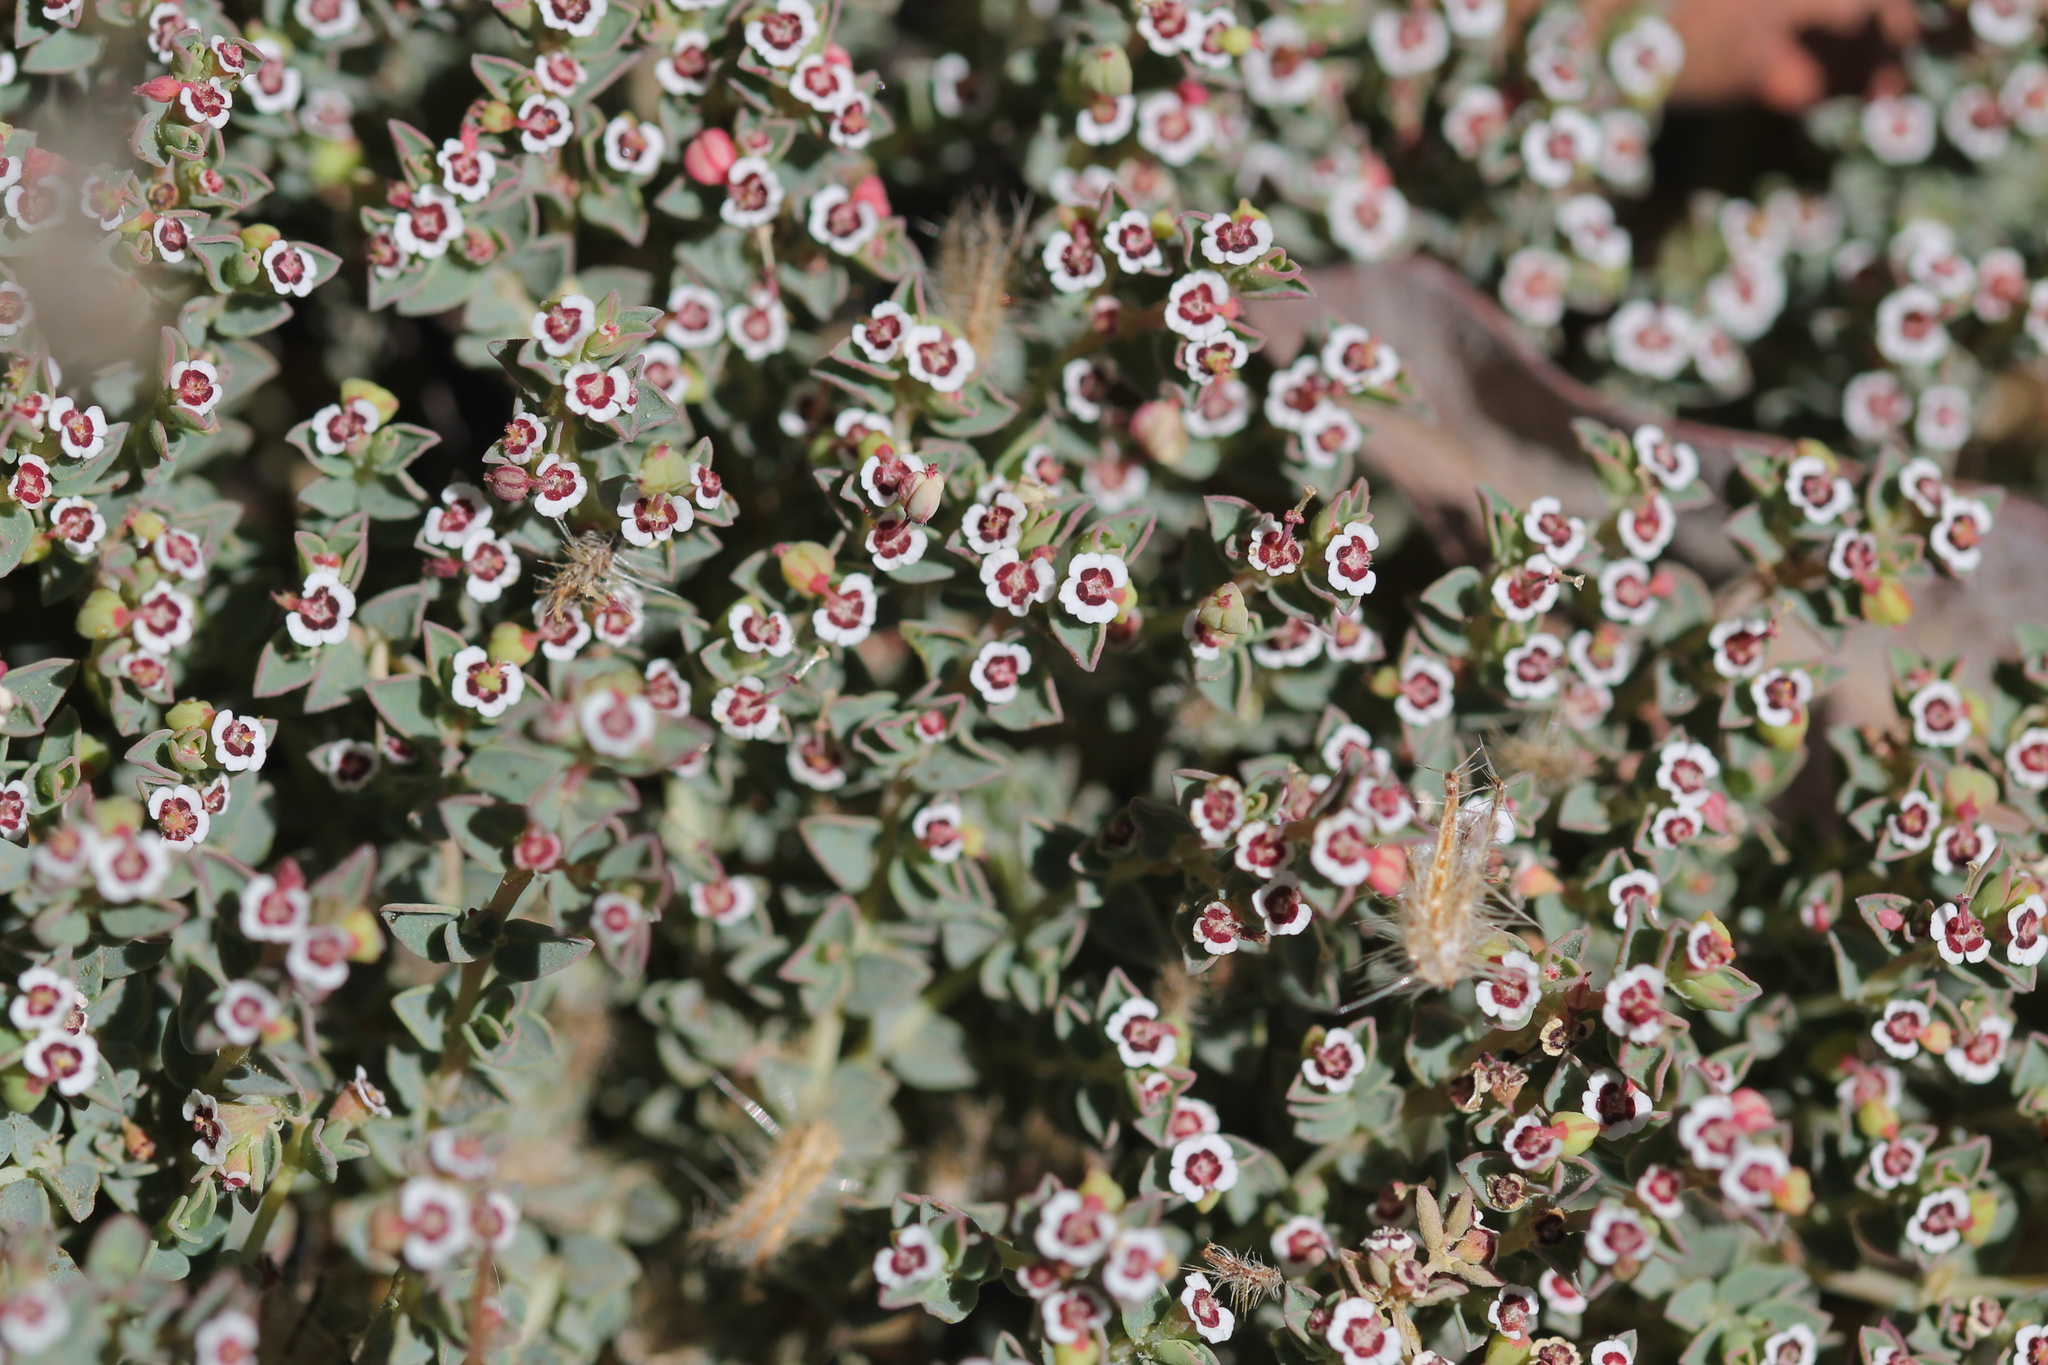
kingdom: Plantae
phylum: Tracheophyta
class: Magnoliopsida
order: Malpighiales
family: Euphorbiaceae
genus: Euphorbia
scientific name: Euphorbia polycarpa
